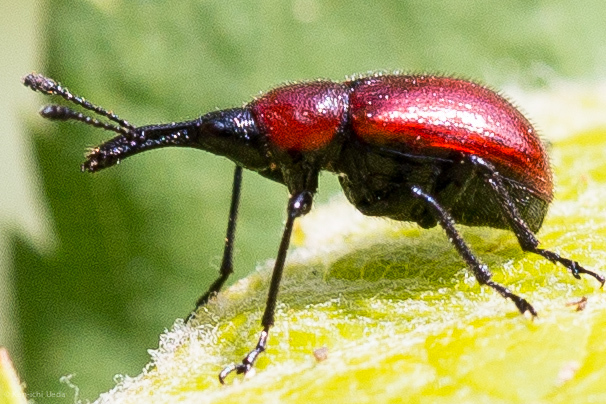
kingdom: Animalia
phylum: Arthropoda
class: Insecta
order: Coleoptera
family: Attelabidae
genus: Merhynchites
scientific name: Merhynchites wickhami
